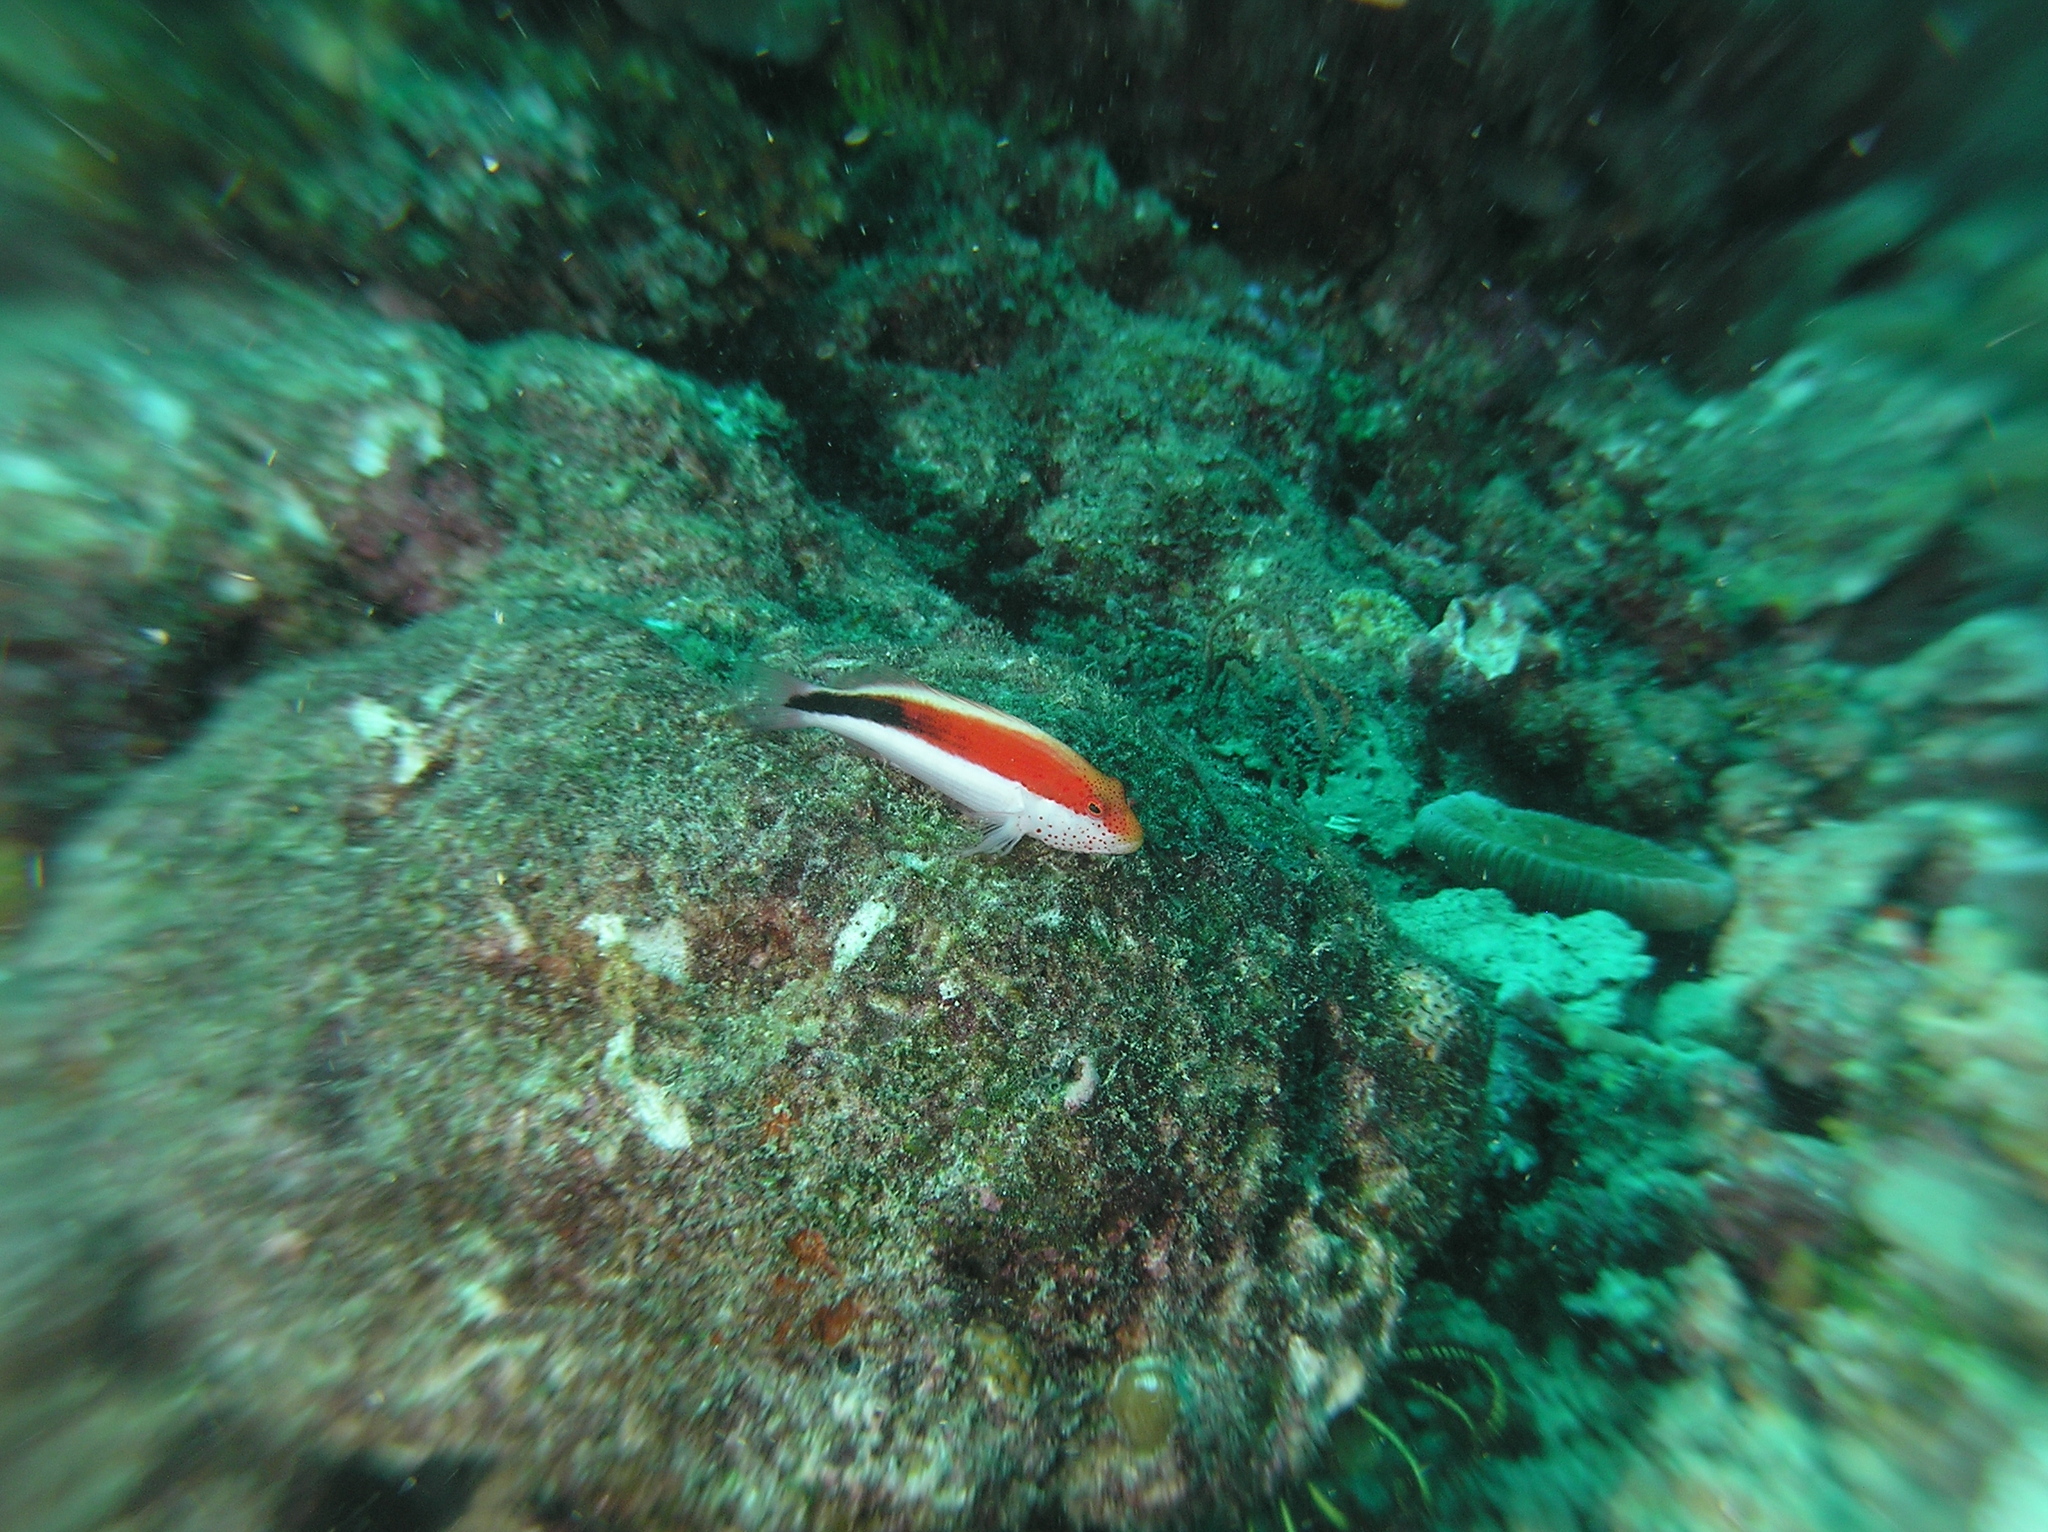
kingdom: Animalia
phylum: Chordata
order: Perciformes
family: Cirrhitidae
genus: Paracirrhites
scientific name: Paracirrhites forsteri
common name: Freckled hawkfish
